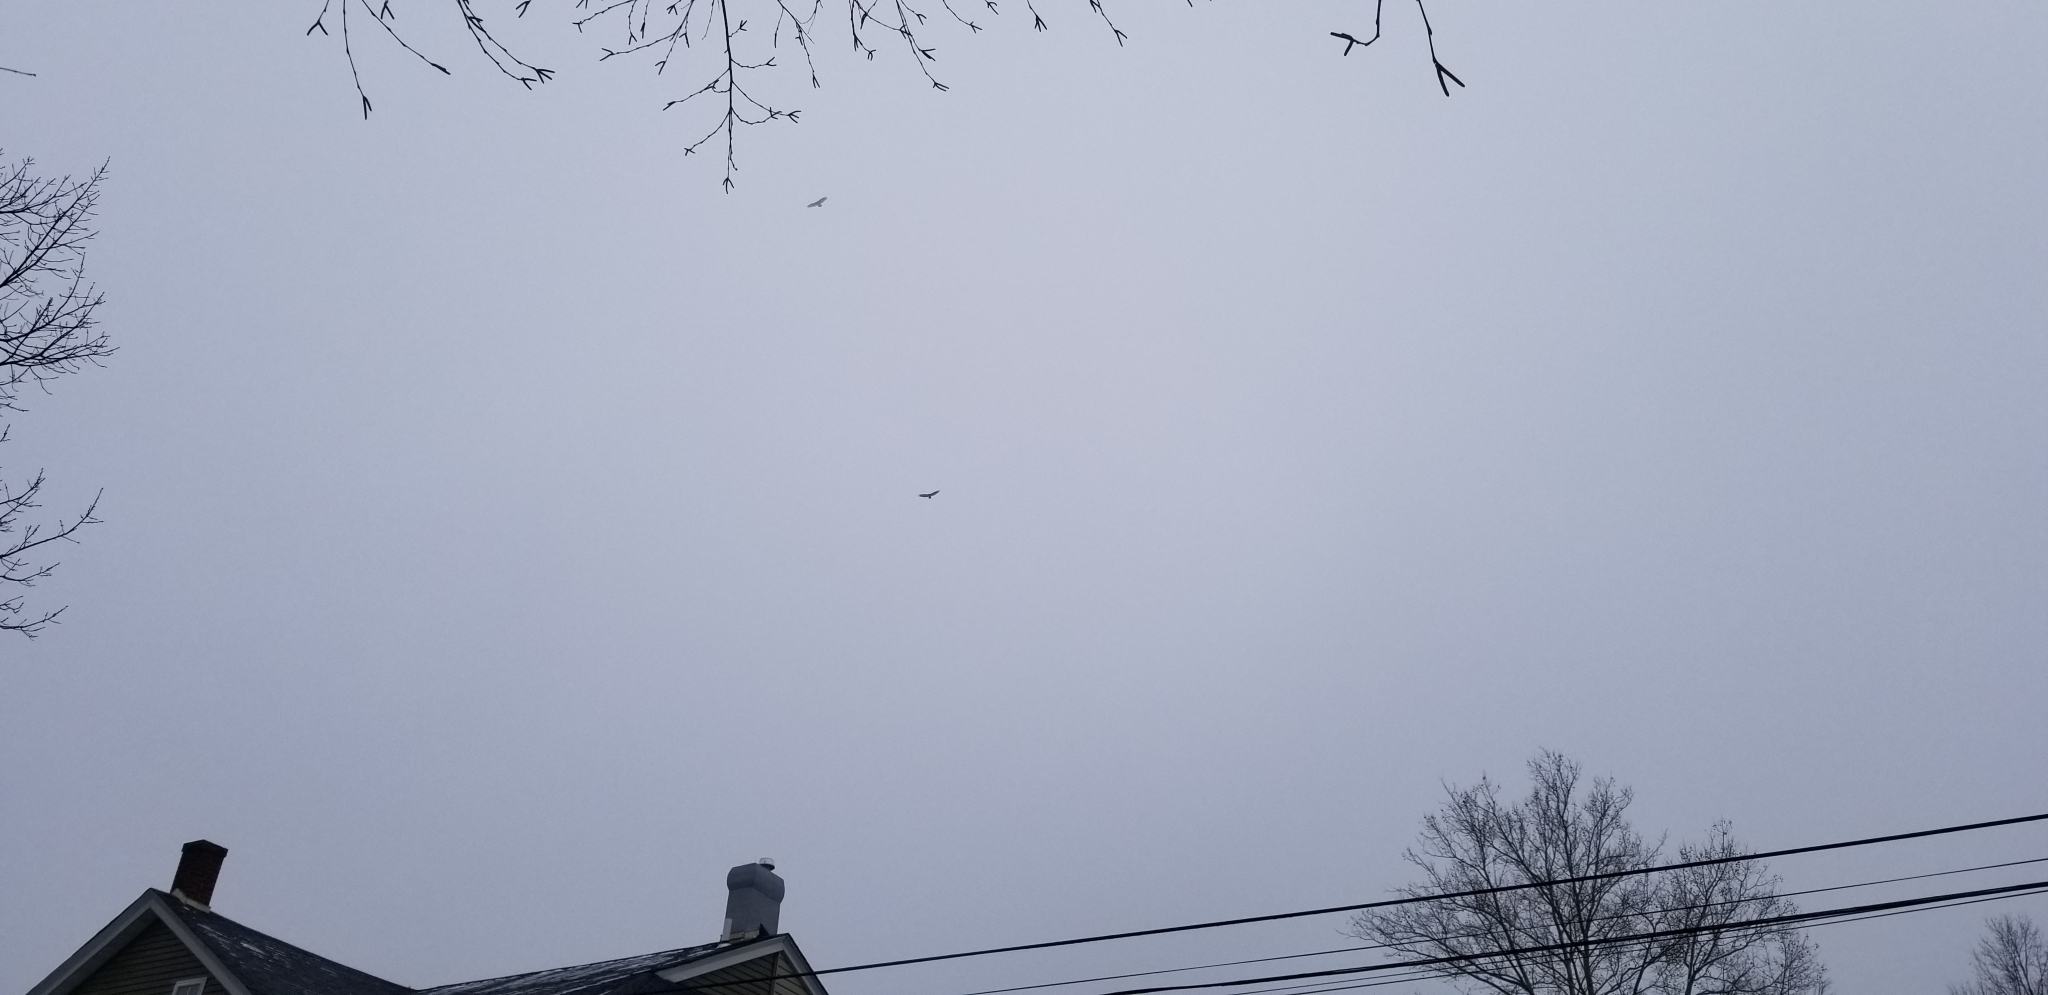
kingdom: Animalia
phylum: Chordata
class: Aves
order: Accipitriformes
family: Cathartidae
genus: Cathartes
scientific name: Cathartes aura
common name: Turkey vulture
